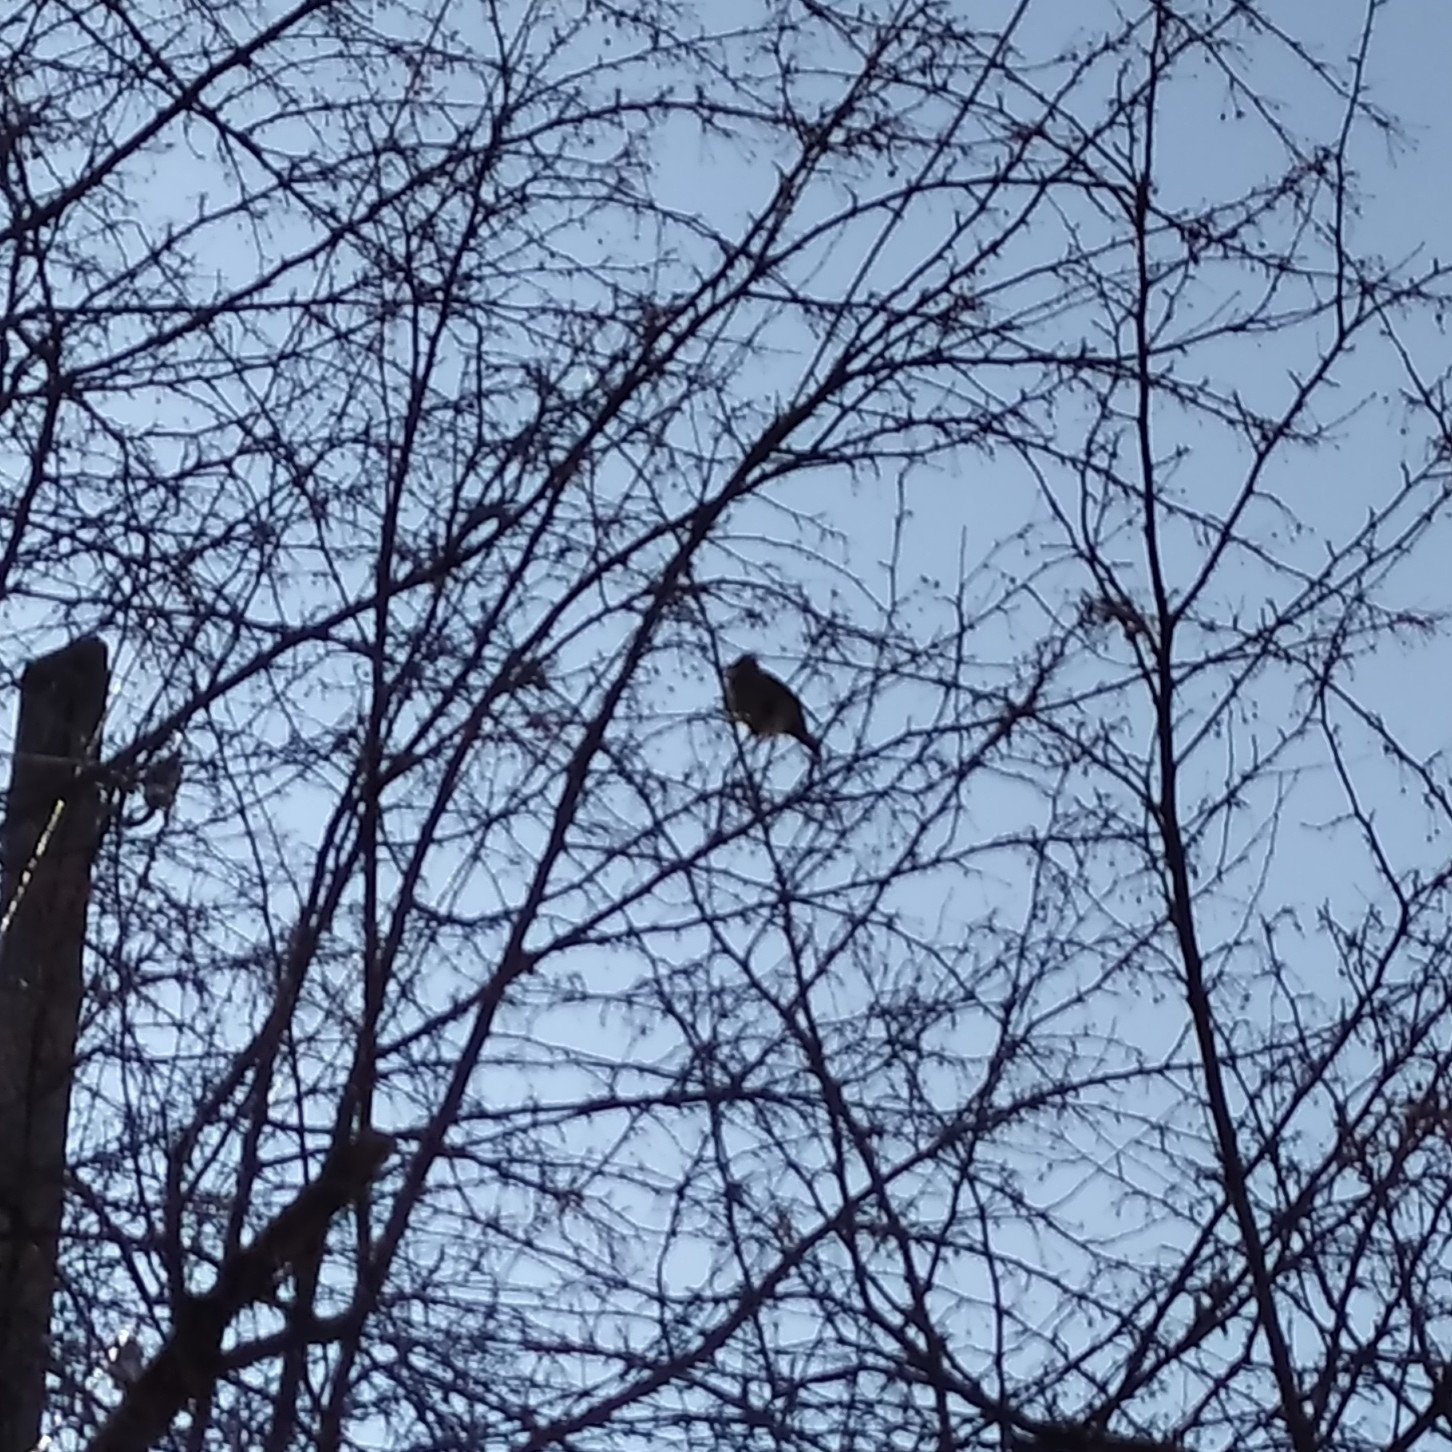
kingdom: Animalia
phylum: Chordata
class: Aves
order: Passeriformes
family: Bombycillidae
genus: Bombycilla
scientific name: Bombycilla garrulus
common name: Bohemian waxwing
